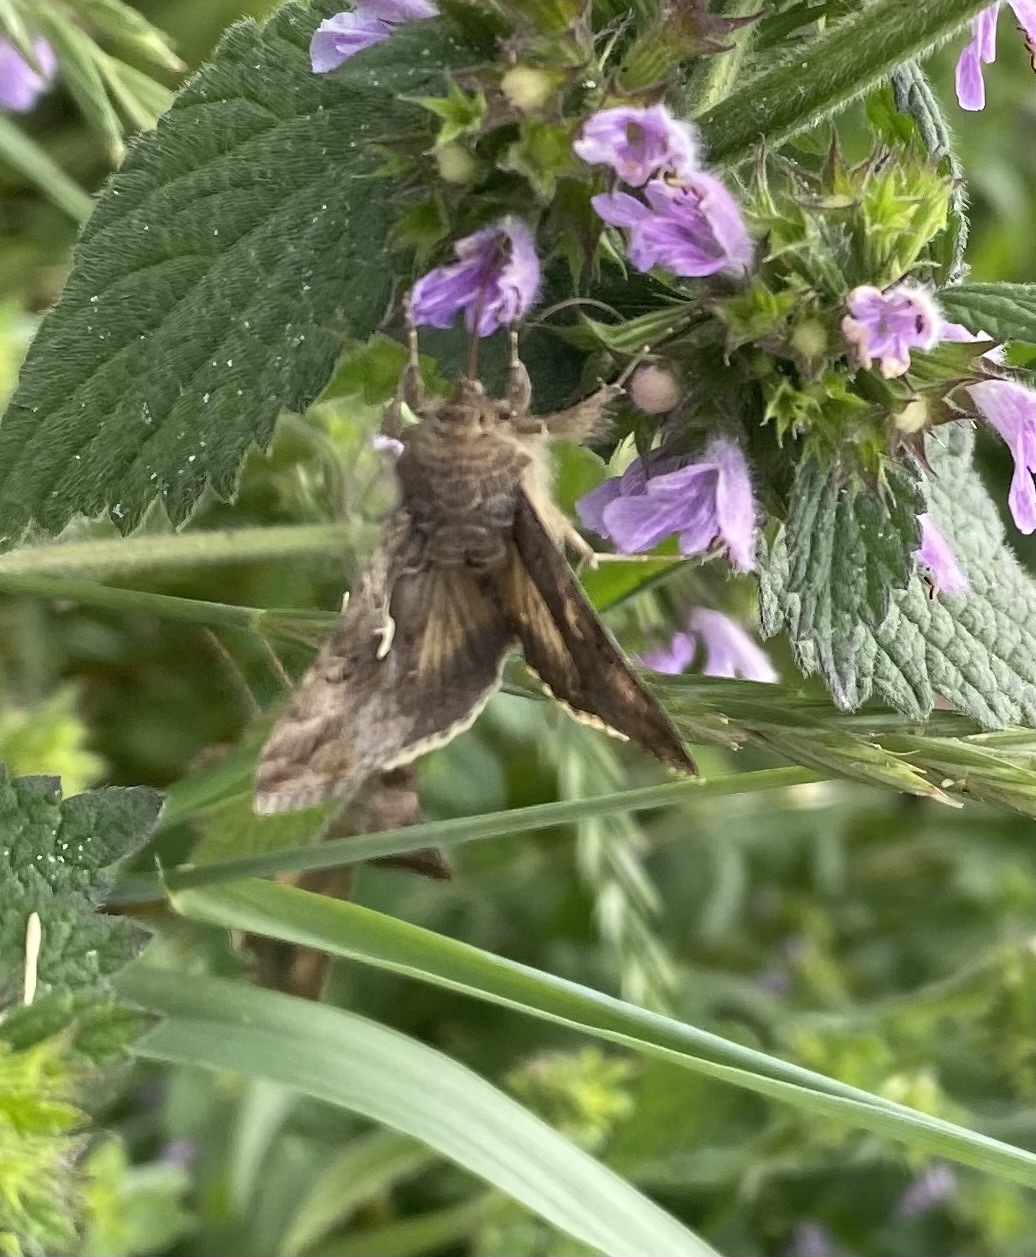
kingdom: Animalia
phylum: Arthropoda
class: Insecta
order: Lepidoptera
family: Noctuidae
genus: Autographa
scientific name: Autographa gamma
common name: Silver y
